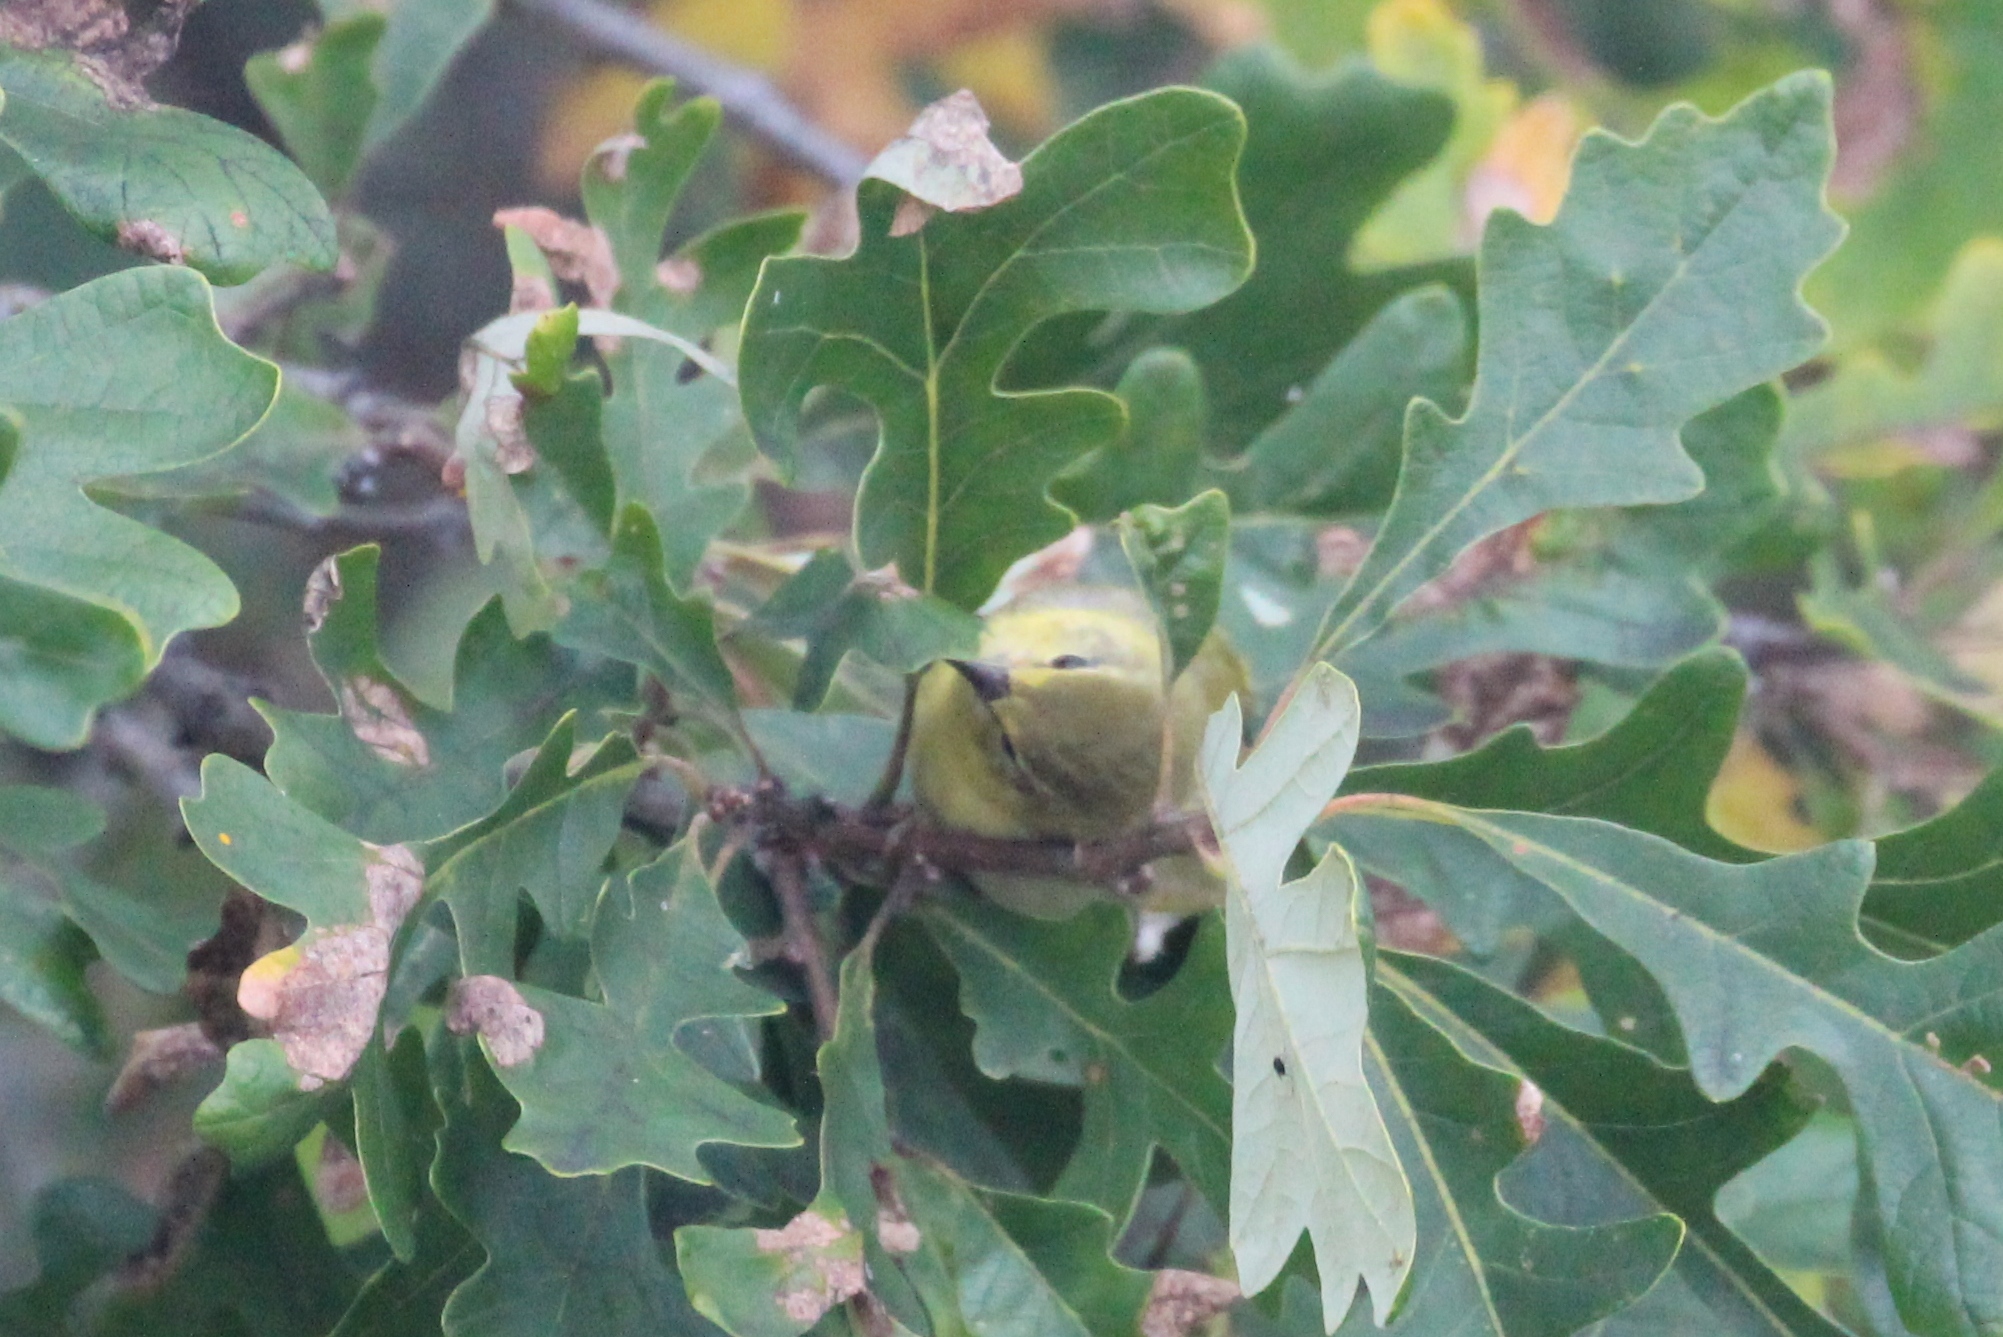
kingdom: Animalia
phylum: Chordata
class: Aves
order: Passeriformes
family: Parulidae
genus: Leiothlypis
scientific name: Leiothlypis peregrina
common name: Tennessee warbler
